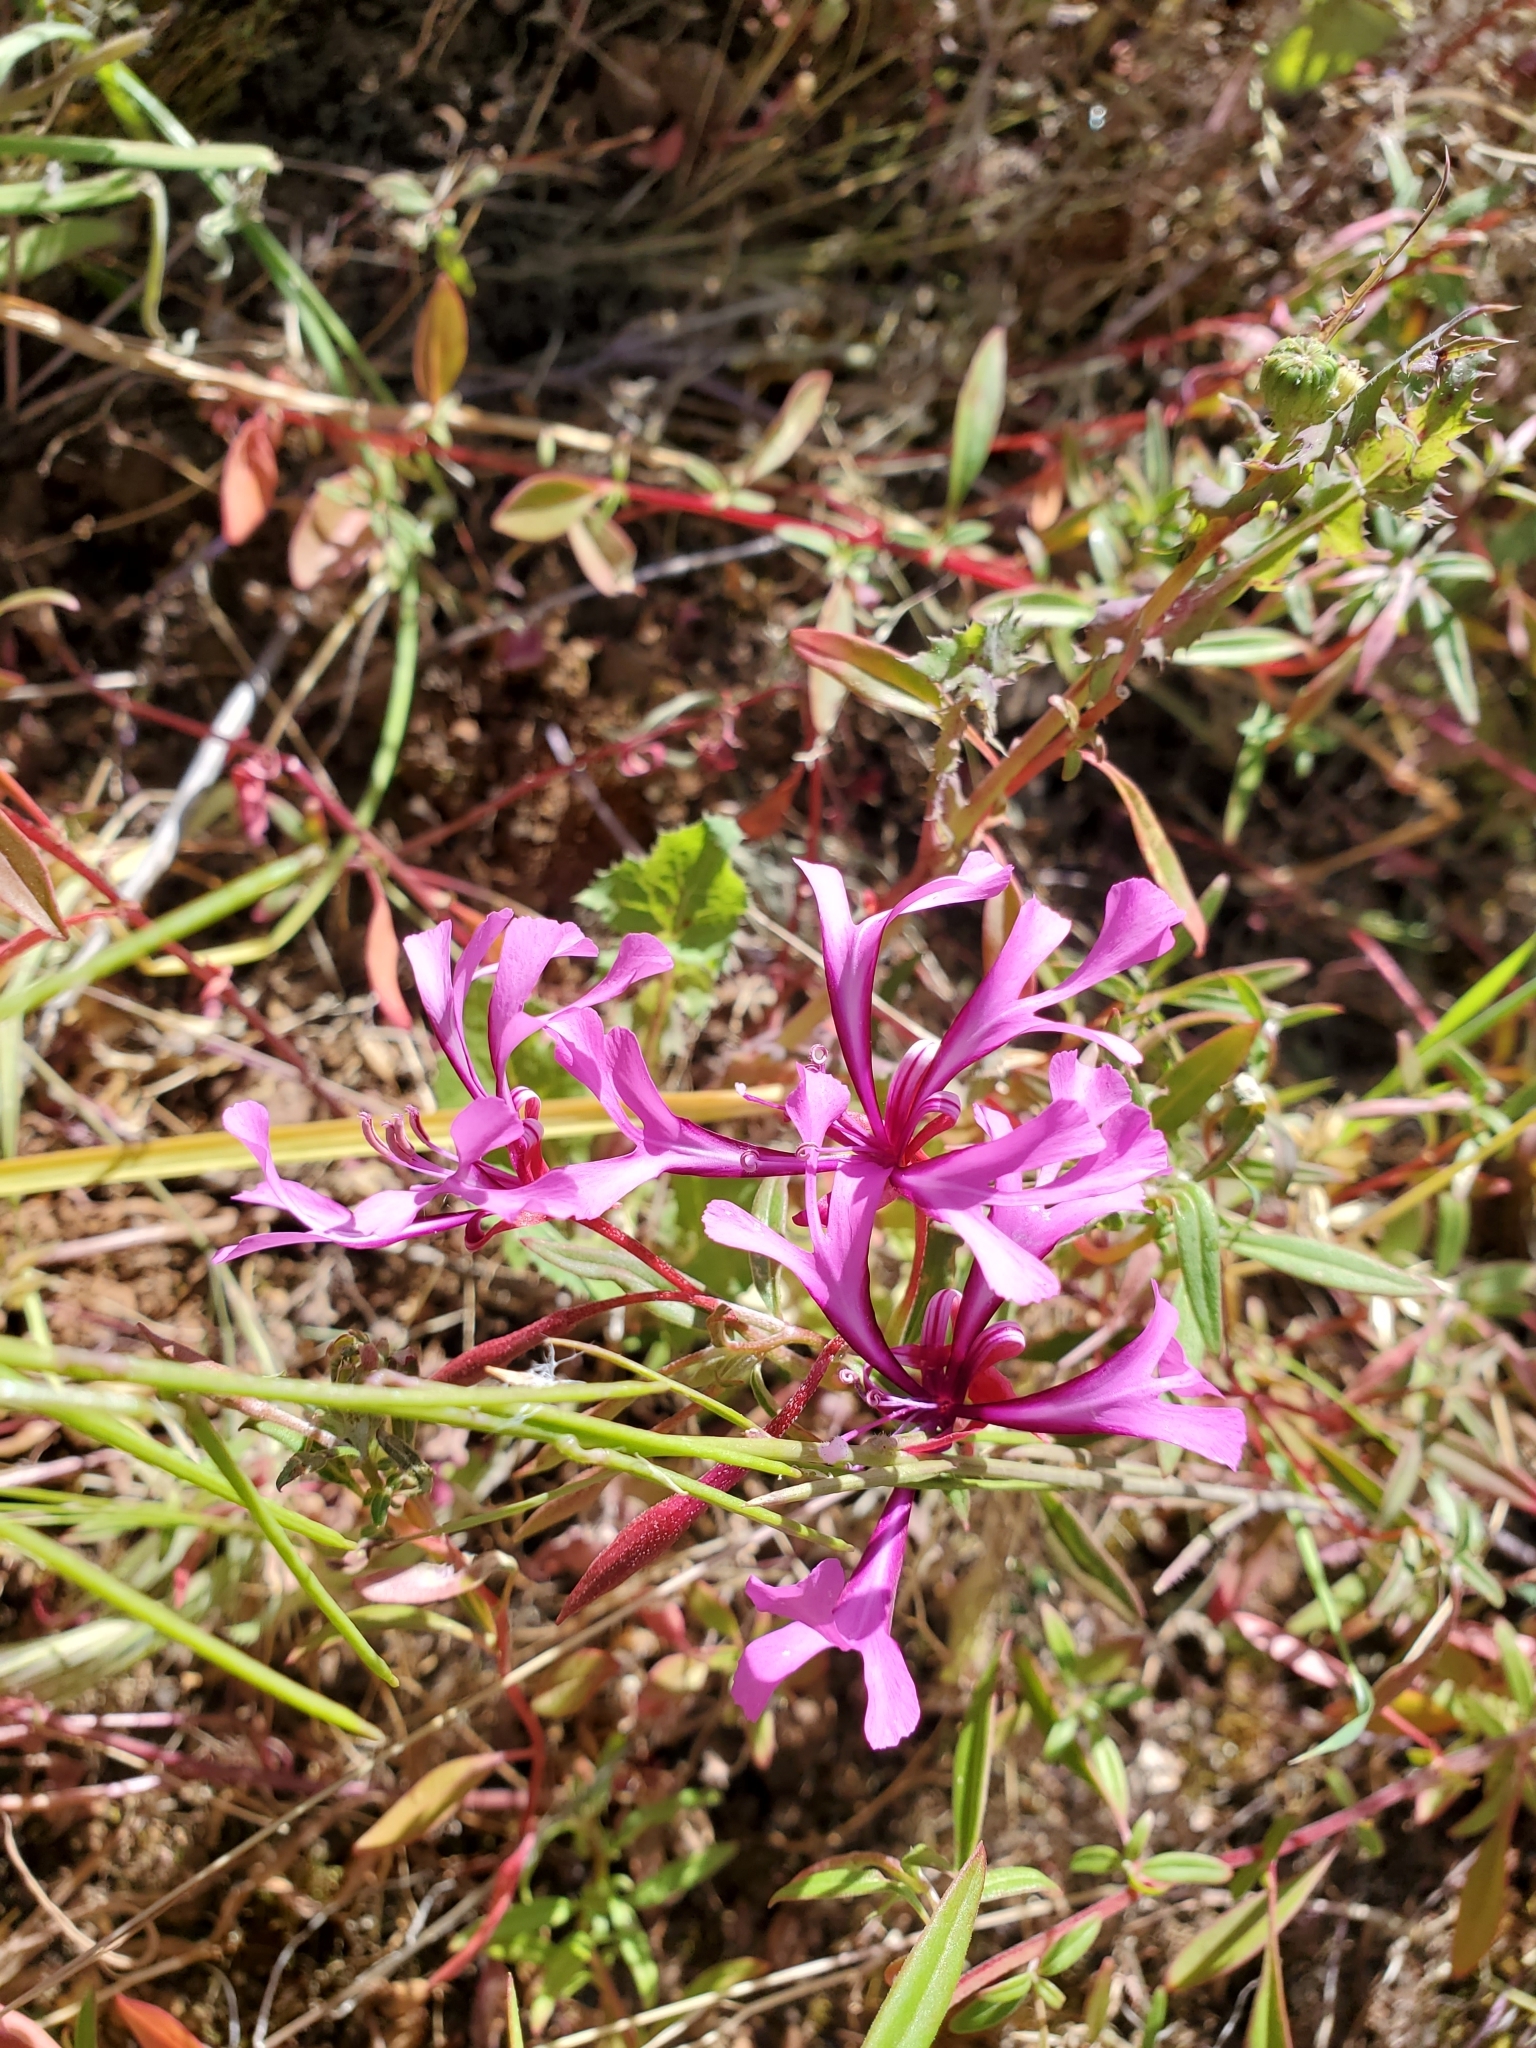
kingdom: Plantae
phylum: Tracheophyta
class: Magnoliopsida
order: Myrtales
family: Onagraceae
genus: Clarkia
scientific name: Clarkia concinna
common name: Red-ribbons
